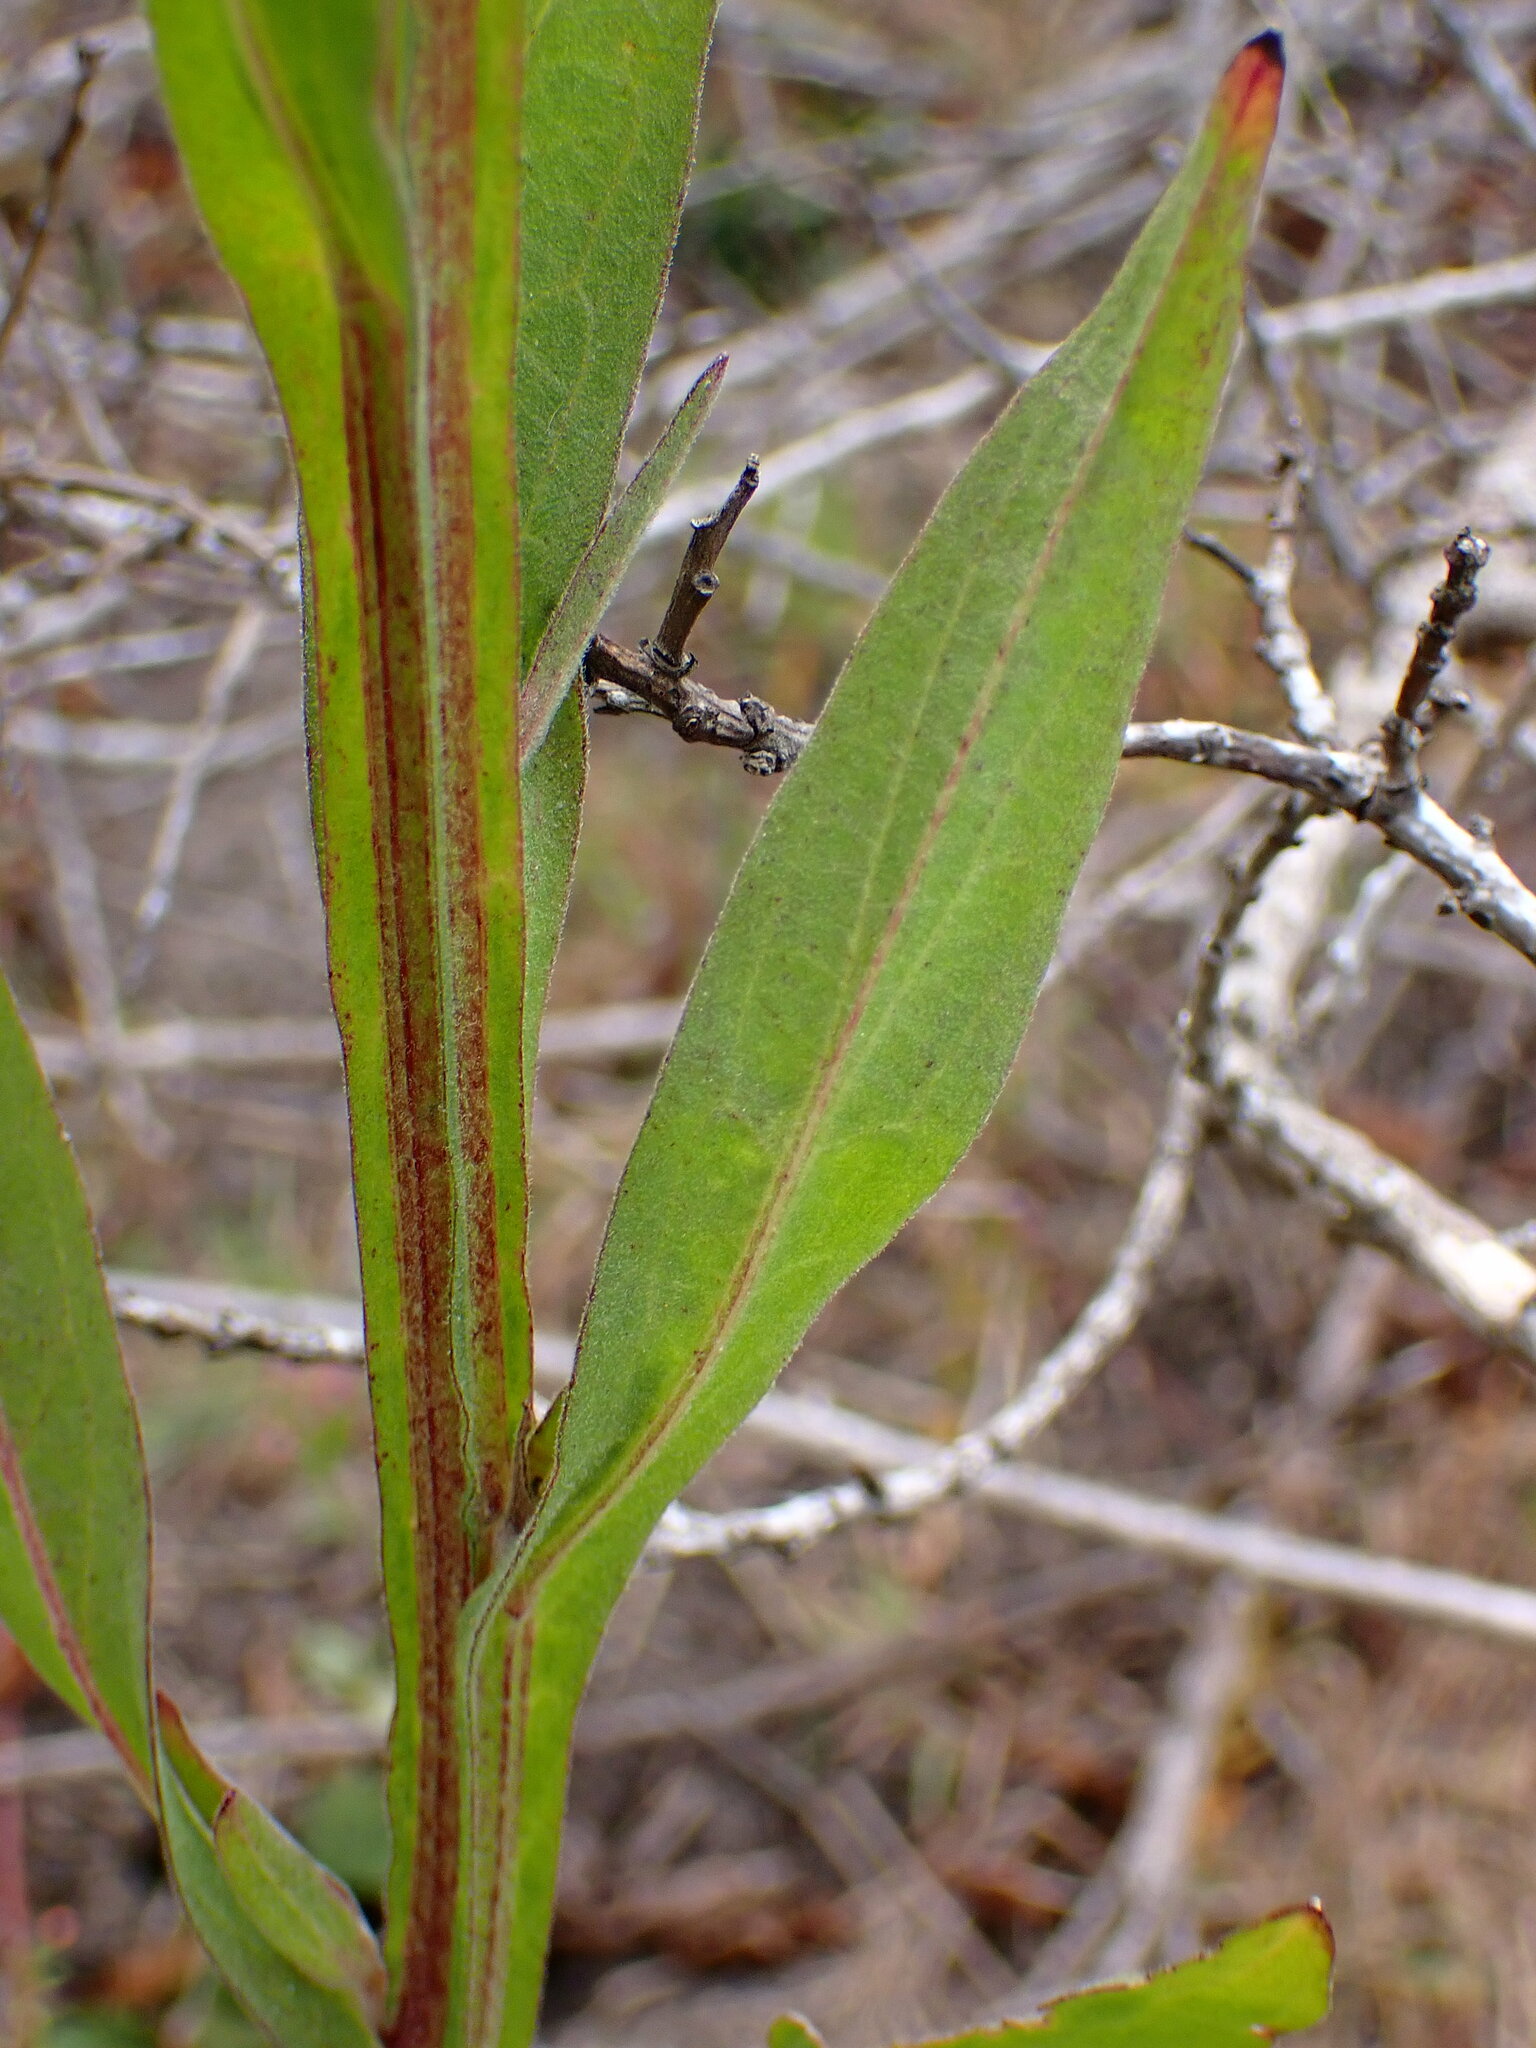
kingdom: Plantae
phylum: Tracheophyta
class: Magnoliopsida
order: Asterales
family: Asteraceae
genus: Helenium
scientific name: Helenium puberulum
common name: Sneezewort
